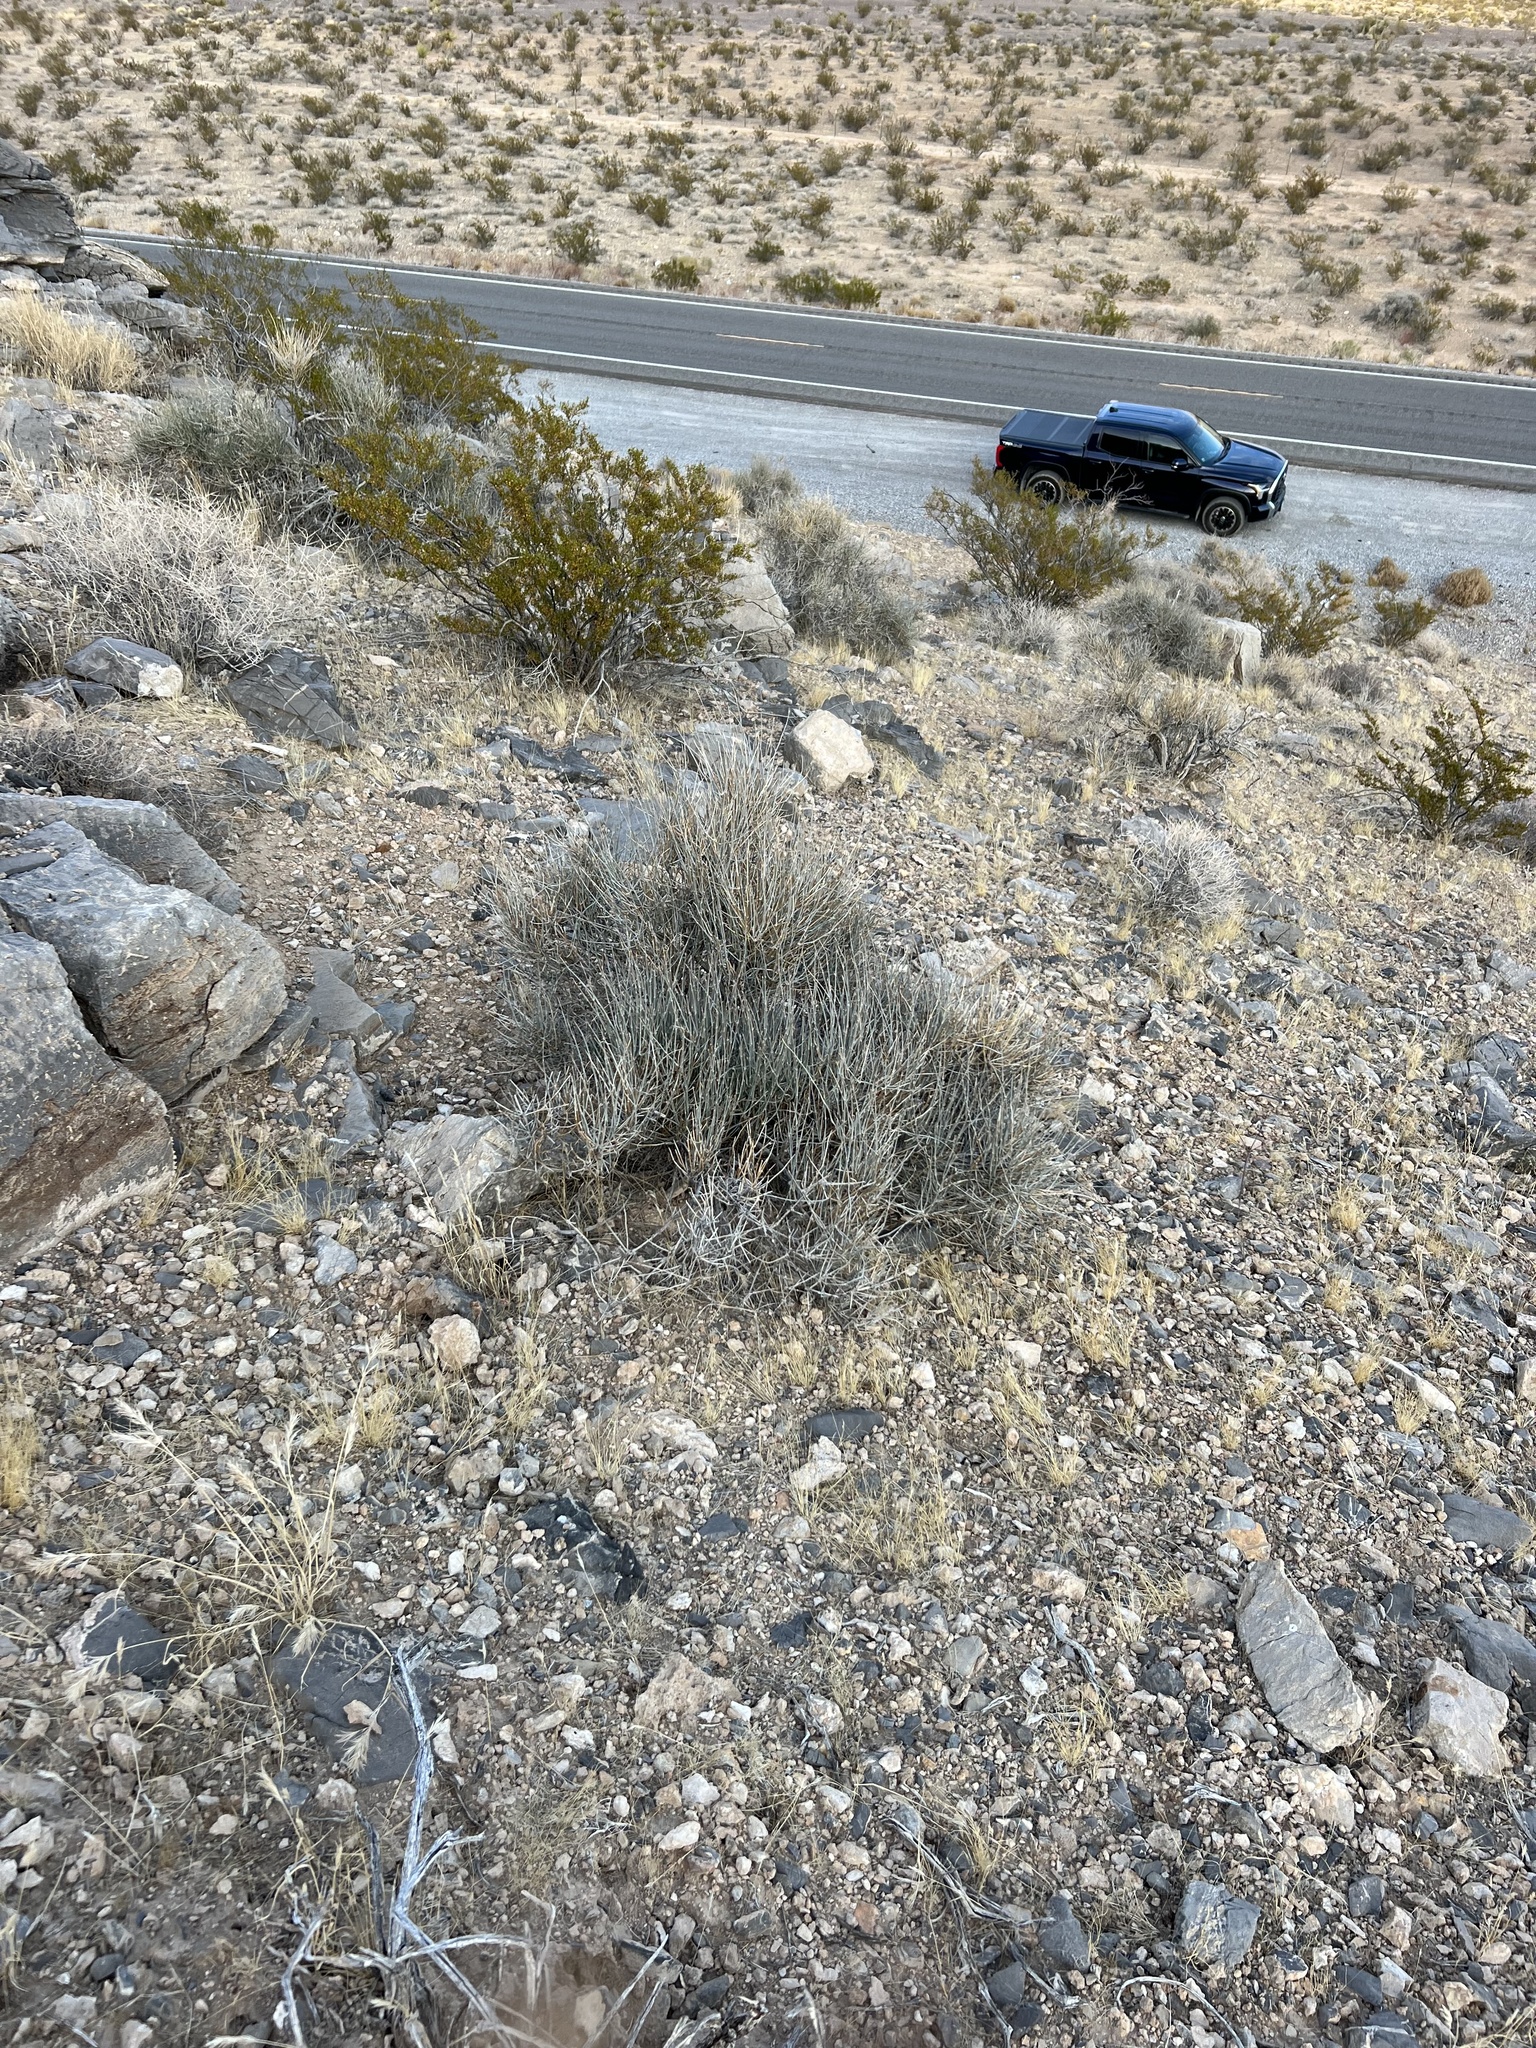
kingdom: Plantae
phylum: Tracheophyta
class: Gnetopsida
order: Ephedrales
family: Ephedraceae
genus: Ephedra
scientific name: Ephedra nevadensis
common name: Gray ephedra
